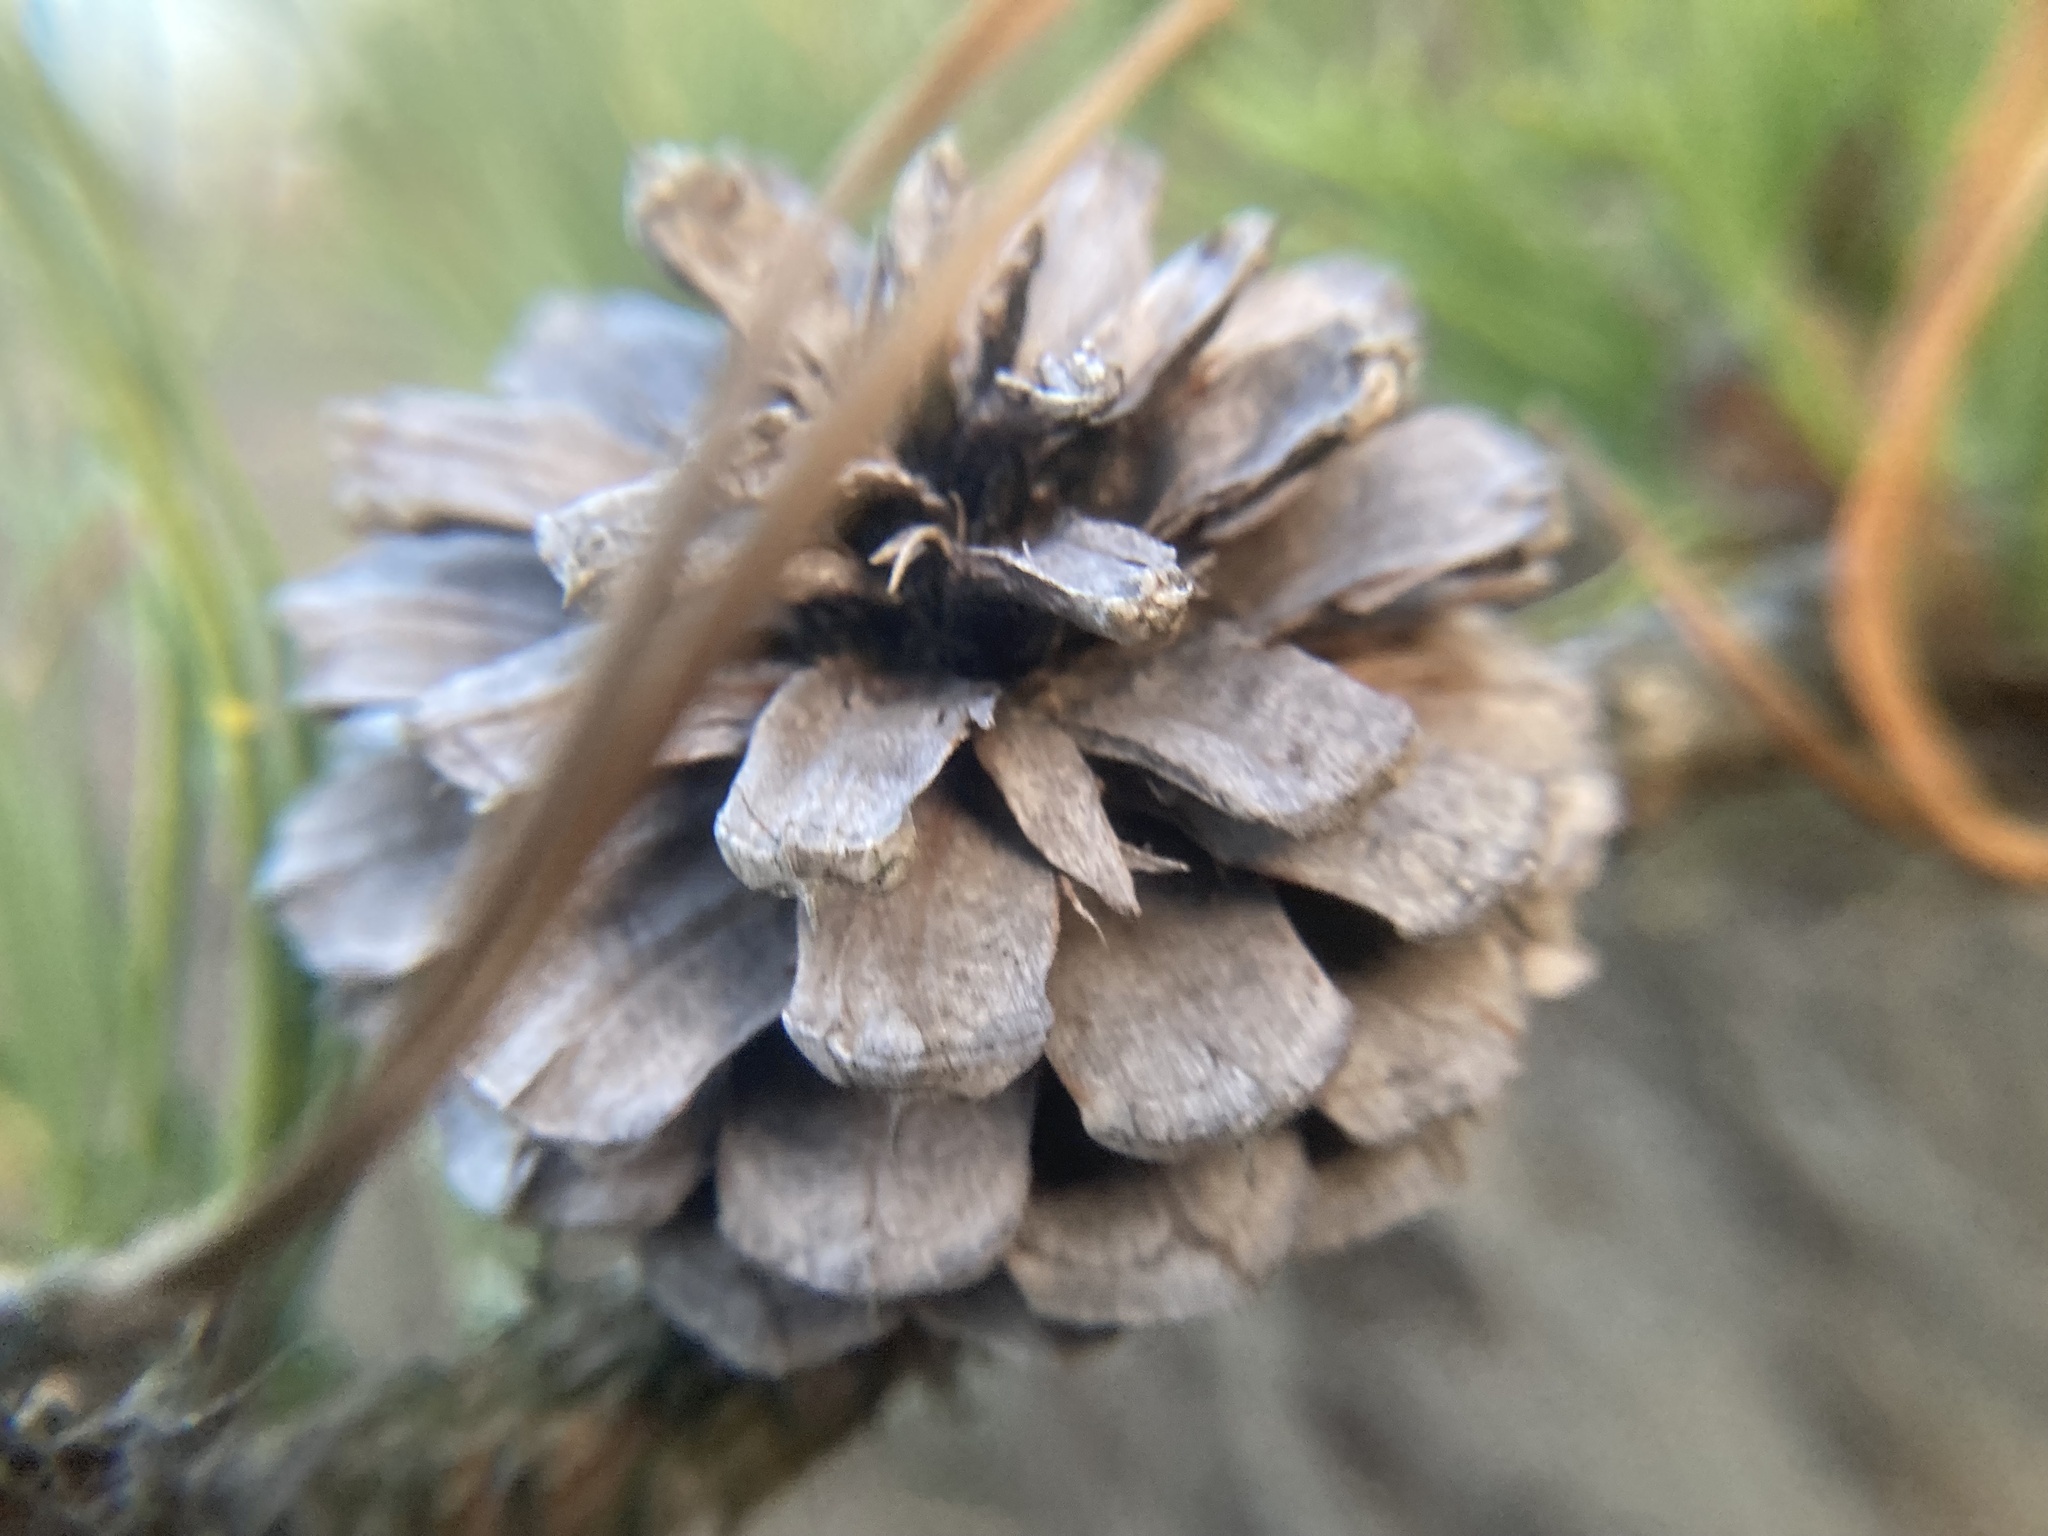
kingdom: Plantae
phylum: Tracheophyta
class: Pinopsida
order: Pinales
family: Pinaceae
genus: Pinus
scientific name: Pinus rigida
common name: Pitch pine
